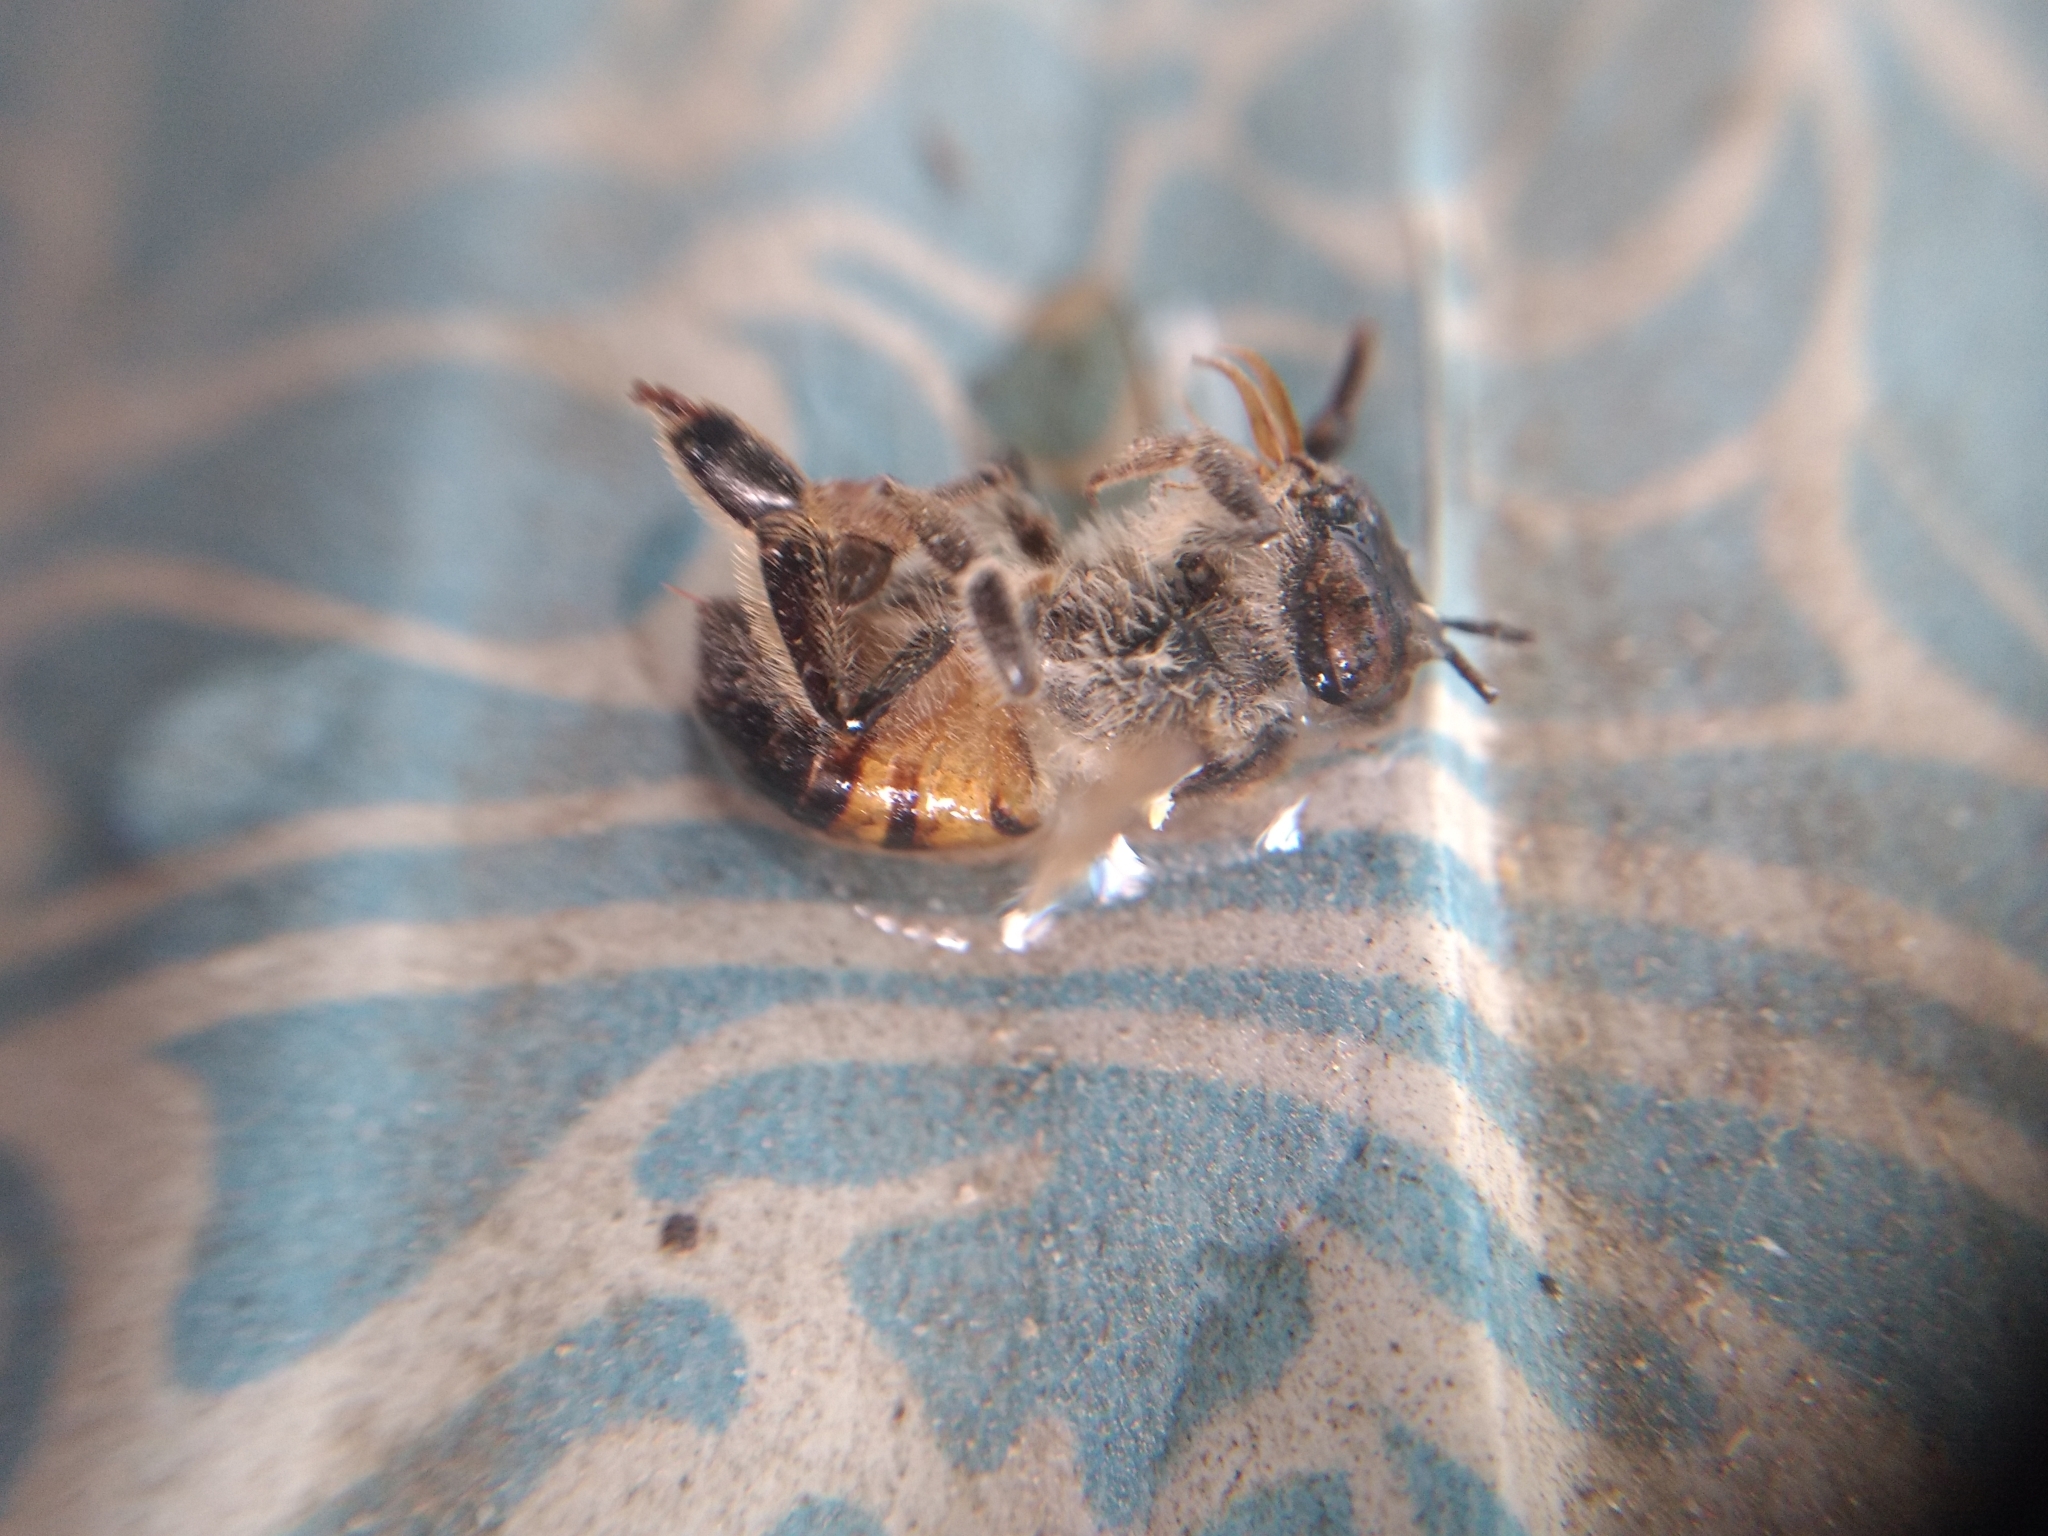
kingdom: Animalia
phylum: Arthropoda
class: Insecta
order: Hymenoptera
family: Apidae
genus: Apis
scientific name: Apis mellifera
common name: Honey bee
